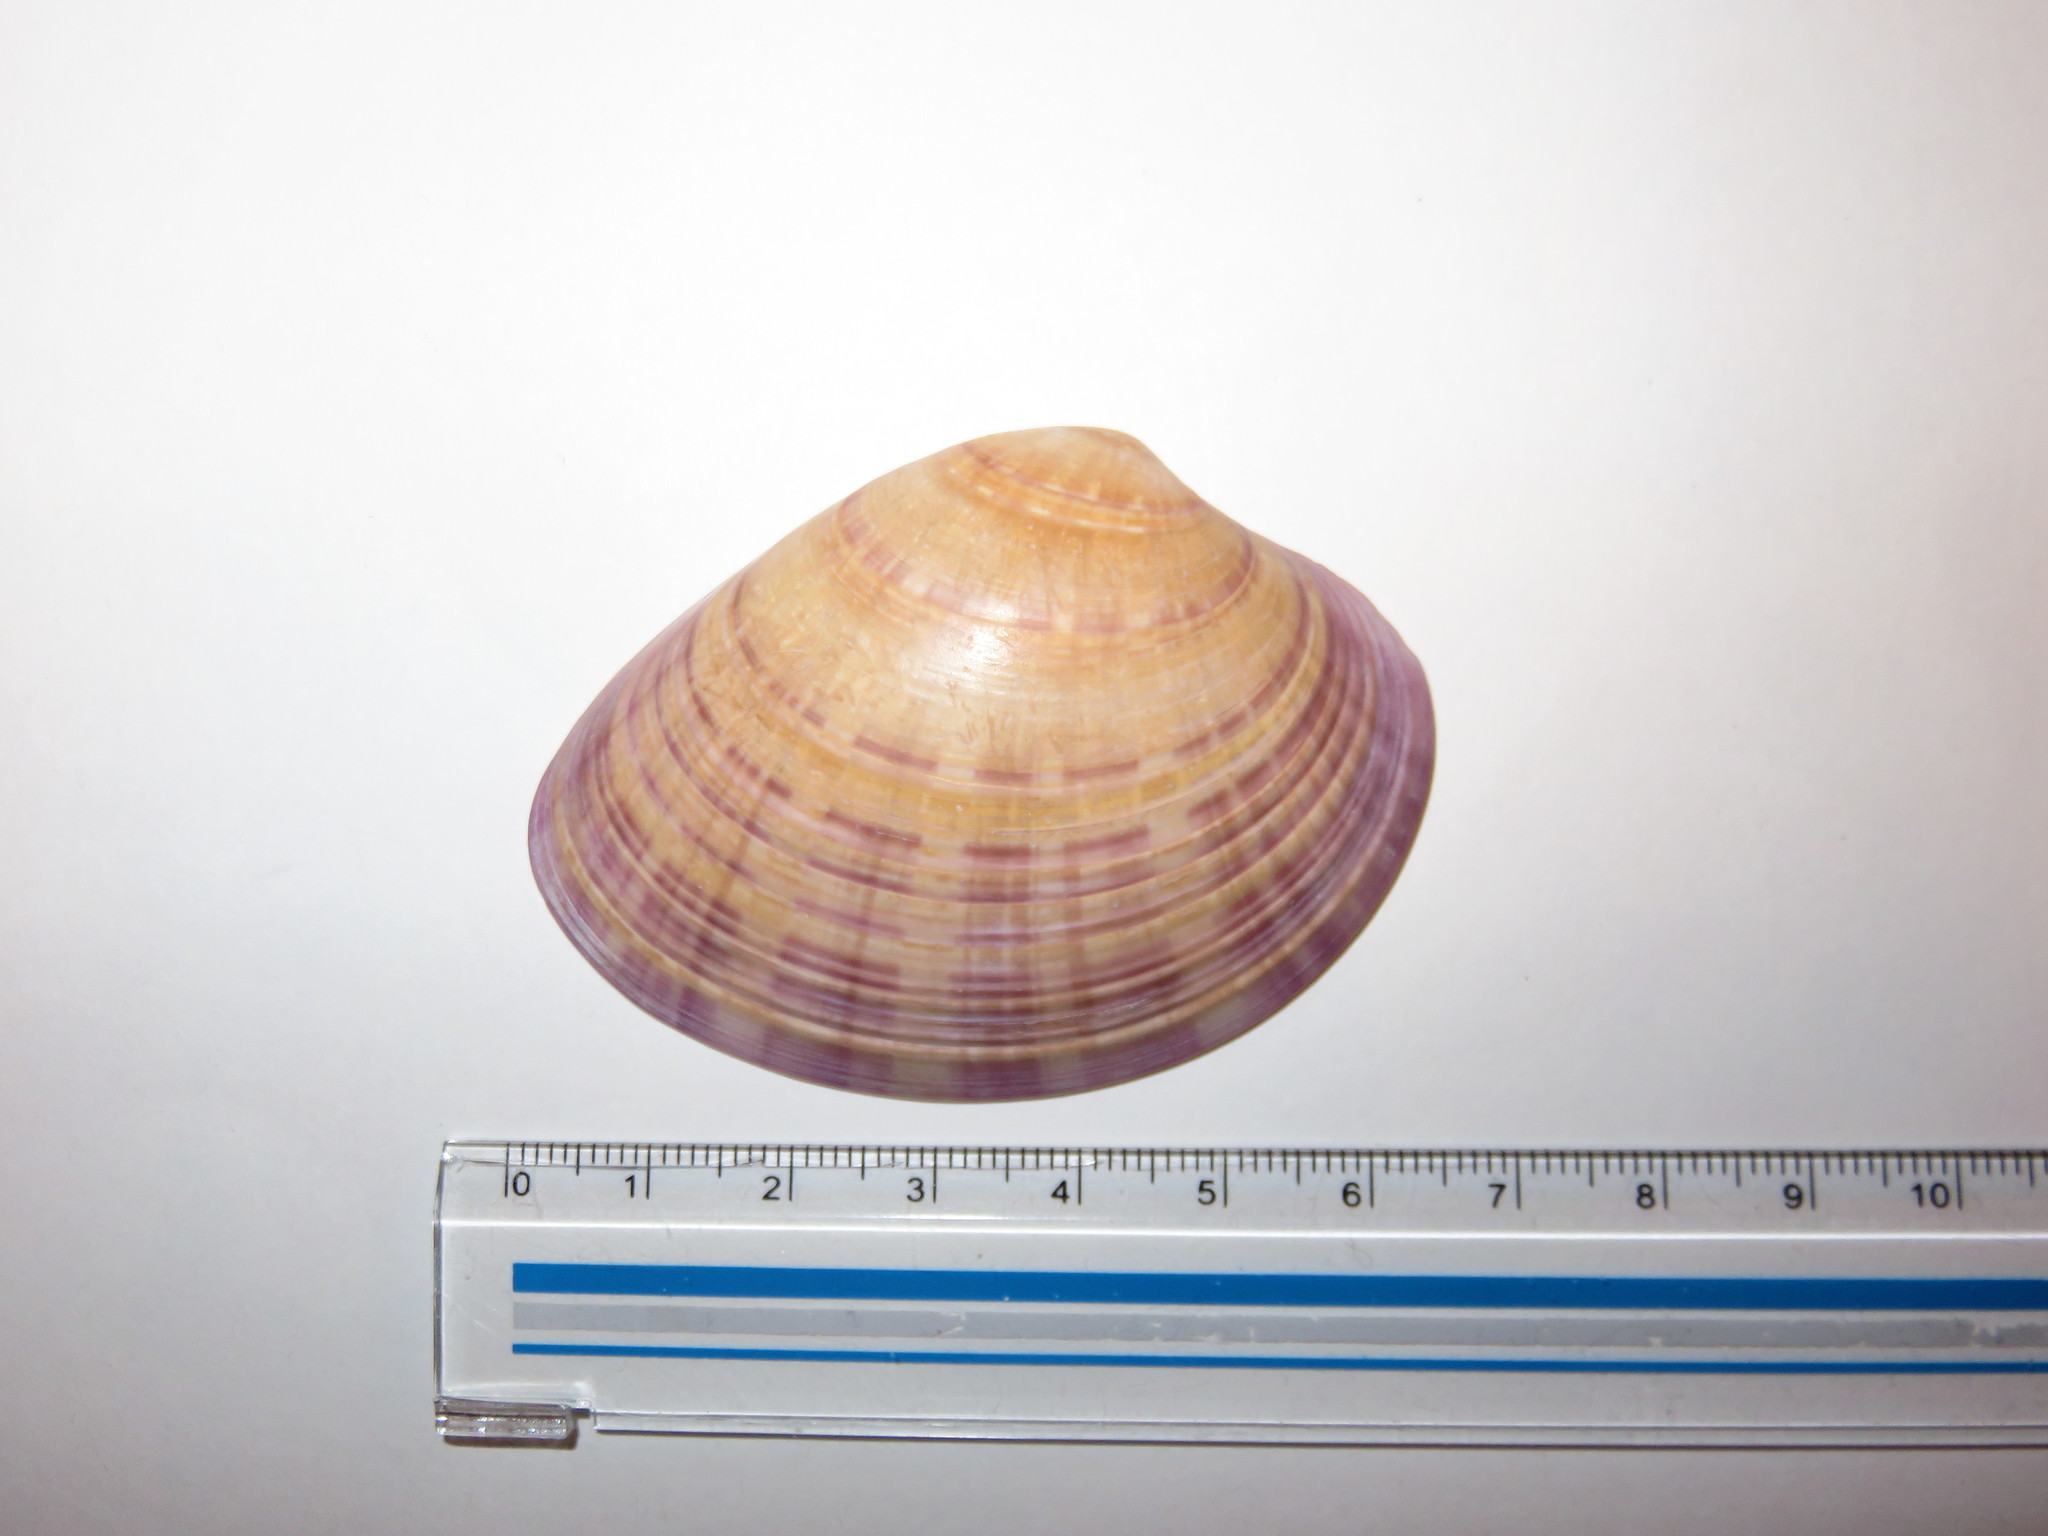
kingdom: Animalia
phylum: Mollusca
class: Bivalvia
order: Venerida
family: Veneridae
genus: Callista
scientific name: Callista chinensis
